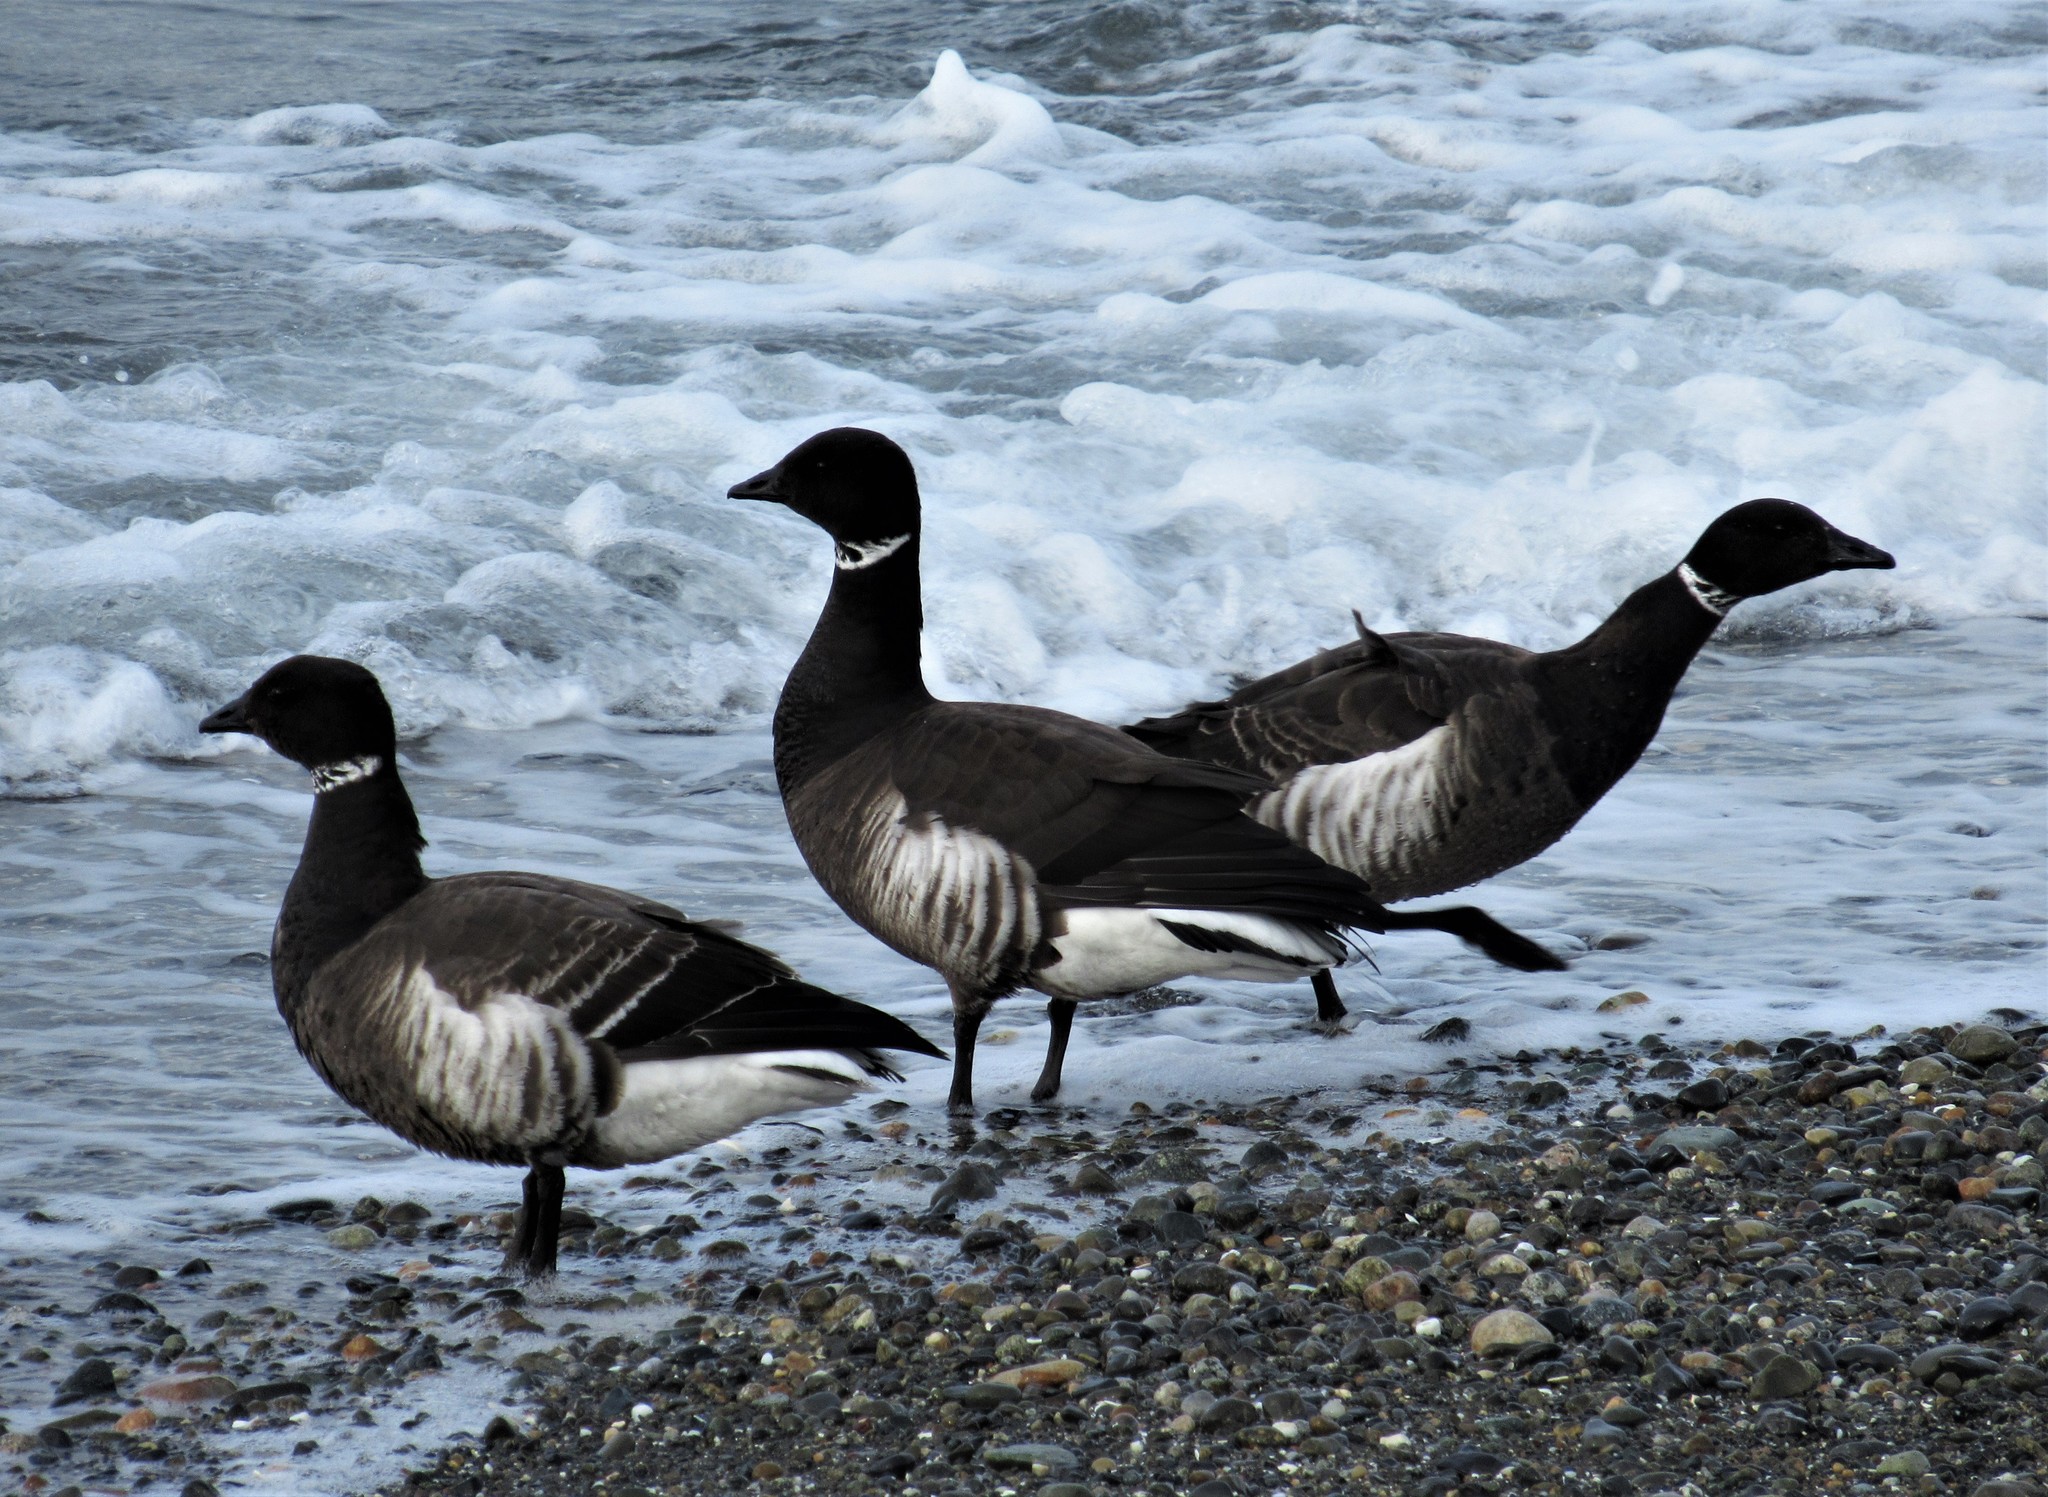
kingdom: Animalia
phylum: Chordata
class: Aves
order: Anseriformes
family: Anatidae
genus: Branta
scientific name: Branta bernicla
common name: Brant goose
